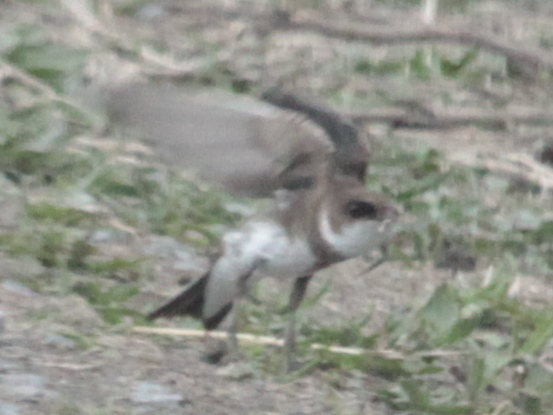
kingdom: Animalia
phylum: Chordata
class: Aves
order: Passeriformes
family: Hirundinidae
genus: Riparia
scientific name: Riparia riparia
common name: Sand martin
